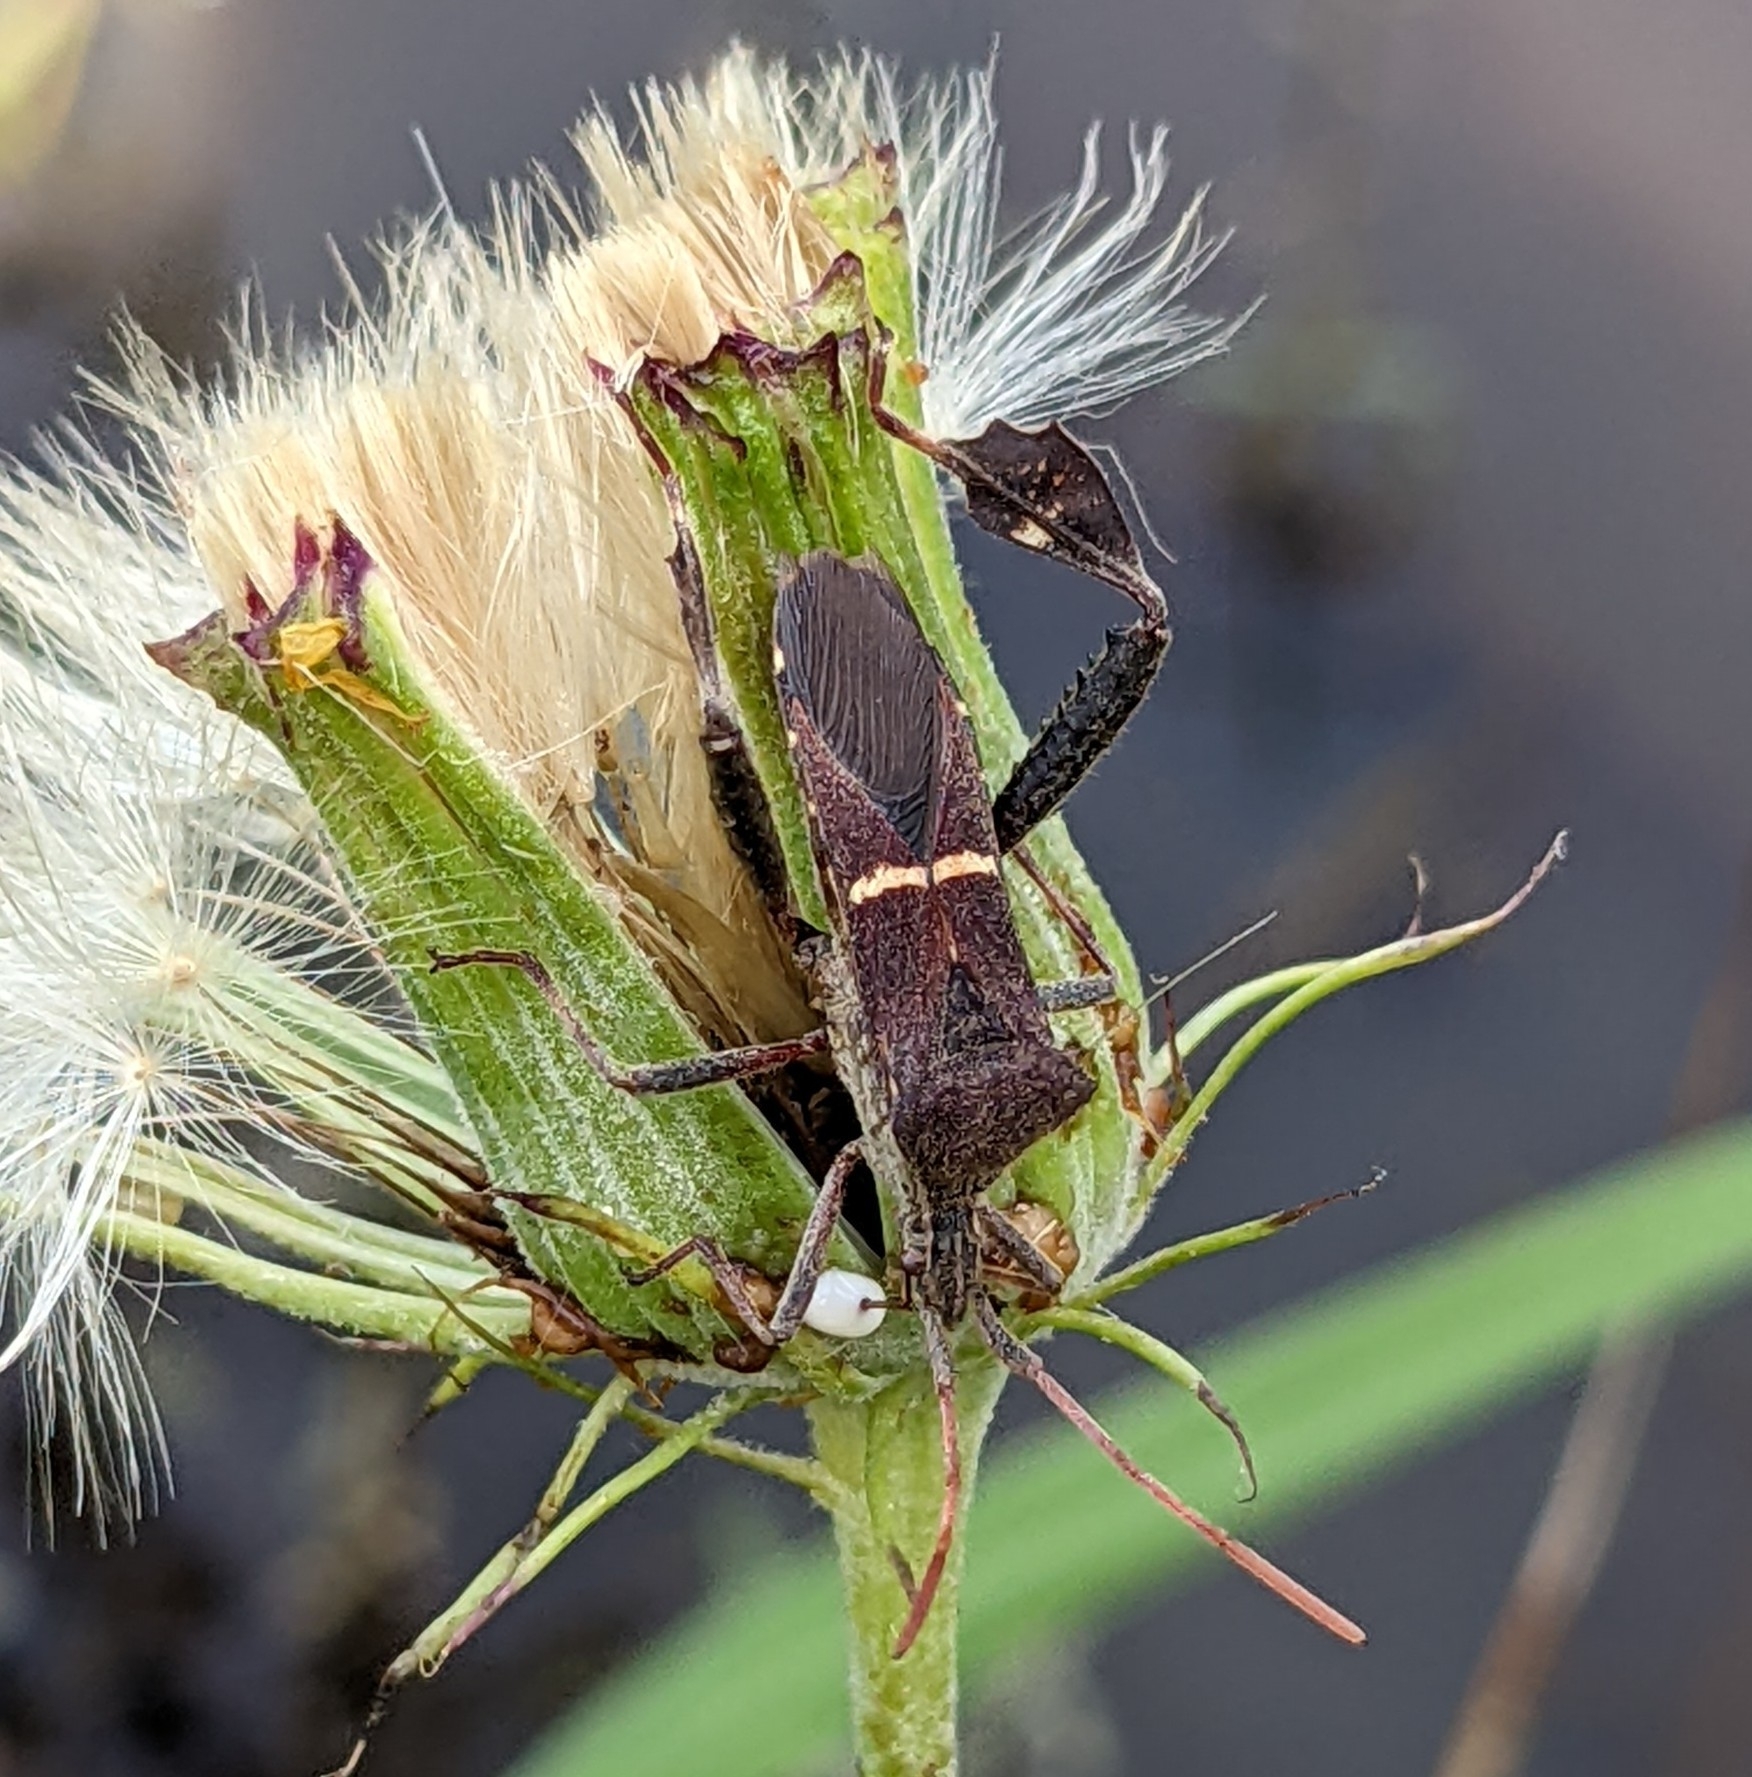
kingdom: Animalia
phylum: Arthropoda
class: Insecta
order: Hemiptera
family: Coreidae
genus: Leptoglossus
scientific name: Leptoglossus phyllopus
